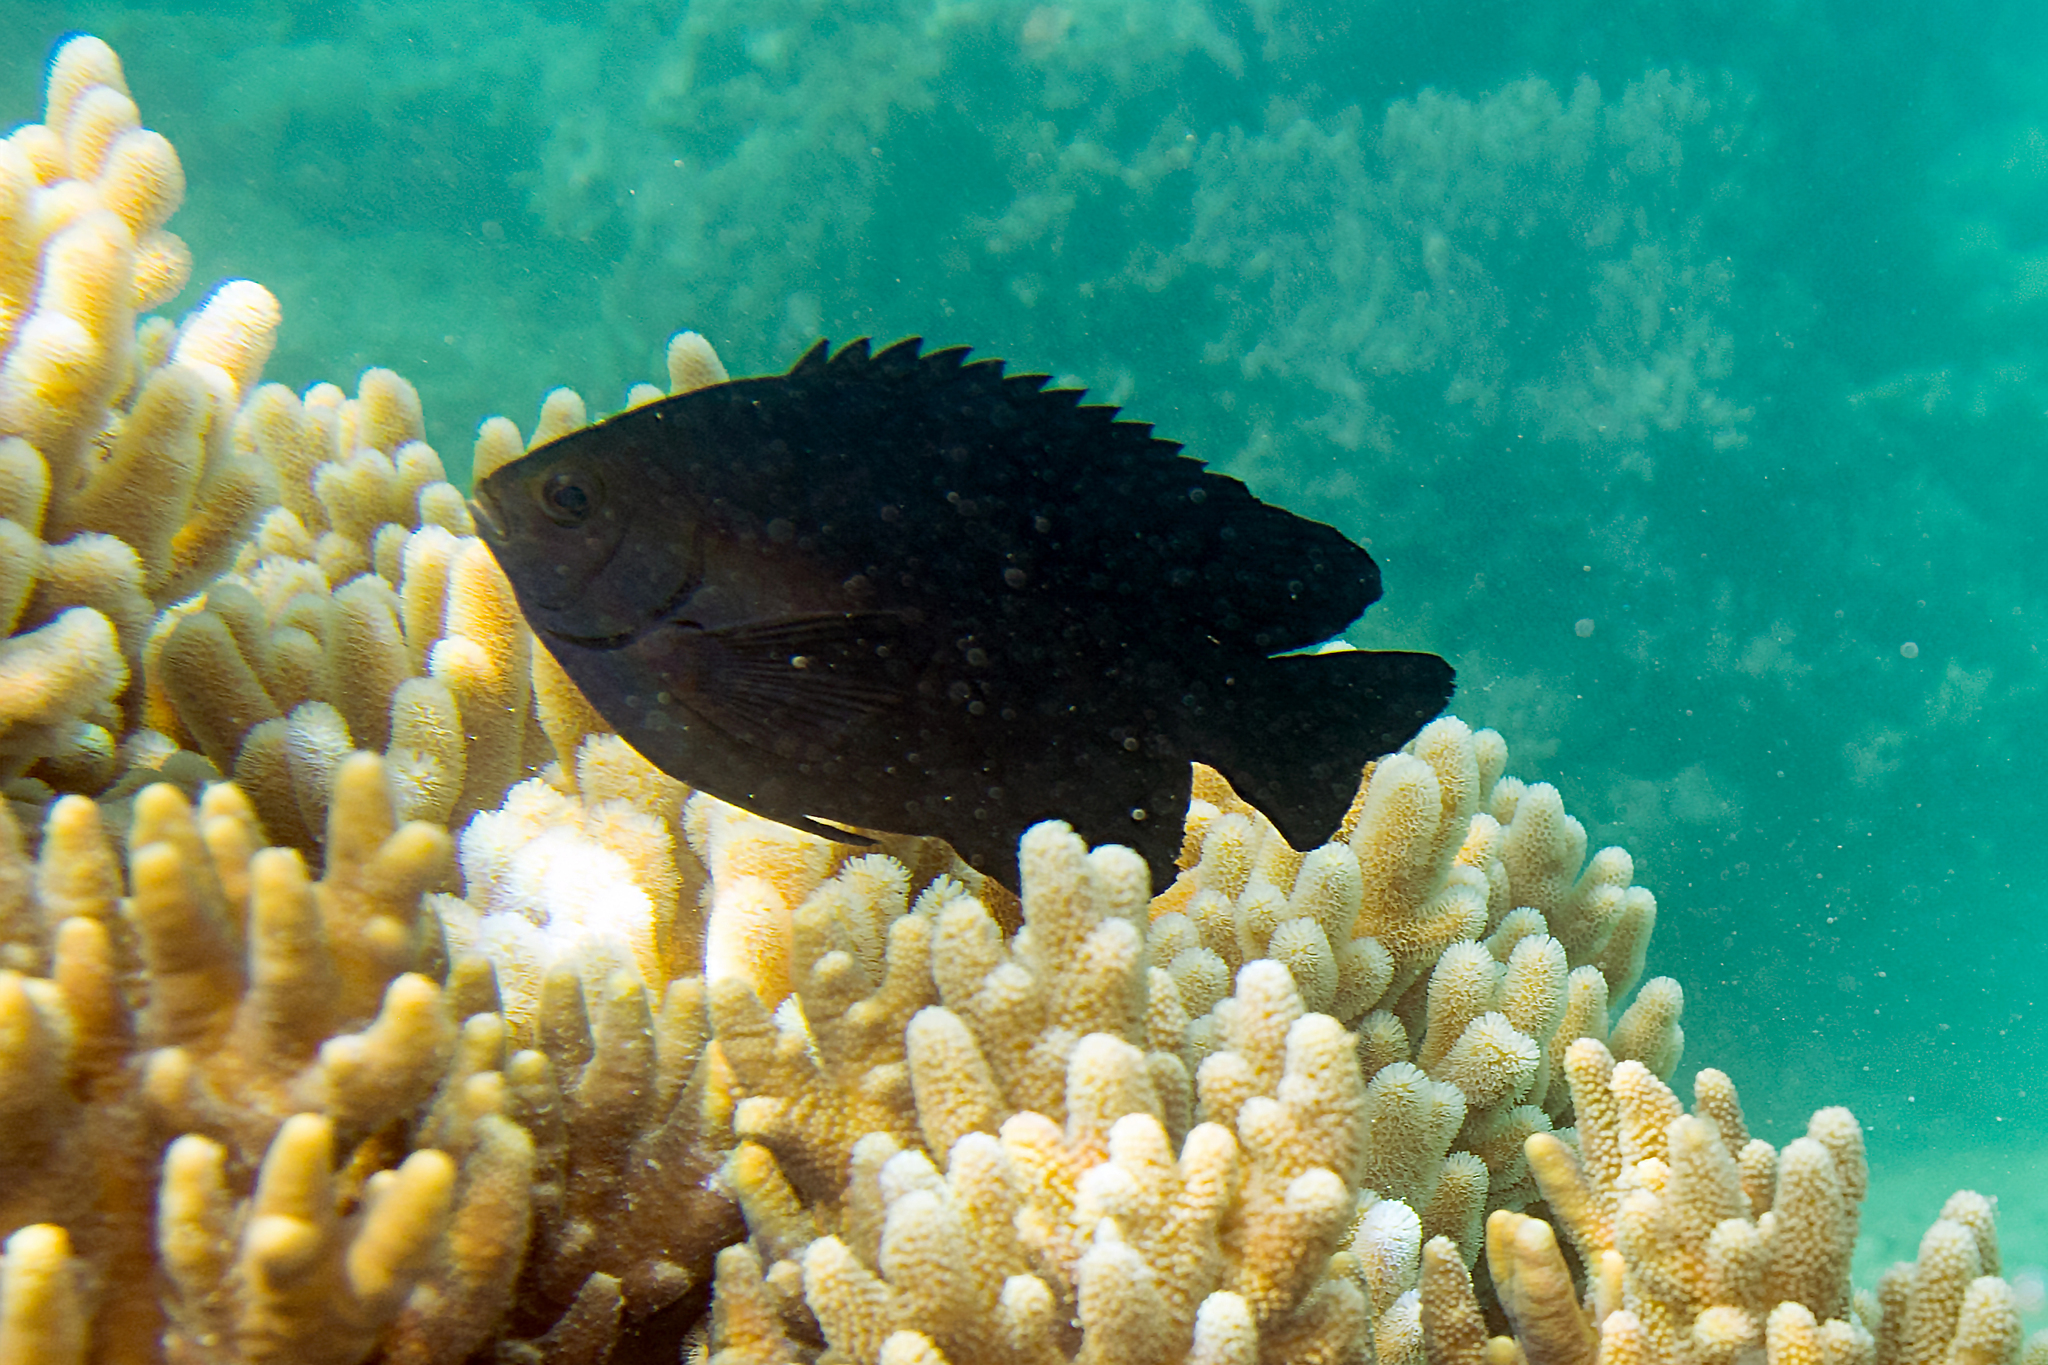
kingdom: Animalia
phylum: Chordata
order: Perciformes
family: Pomacentridae
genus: Neoglyphidodon
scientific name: Neoglyphidodon melas
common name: Black damsel
